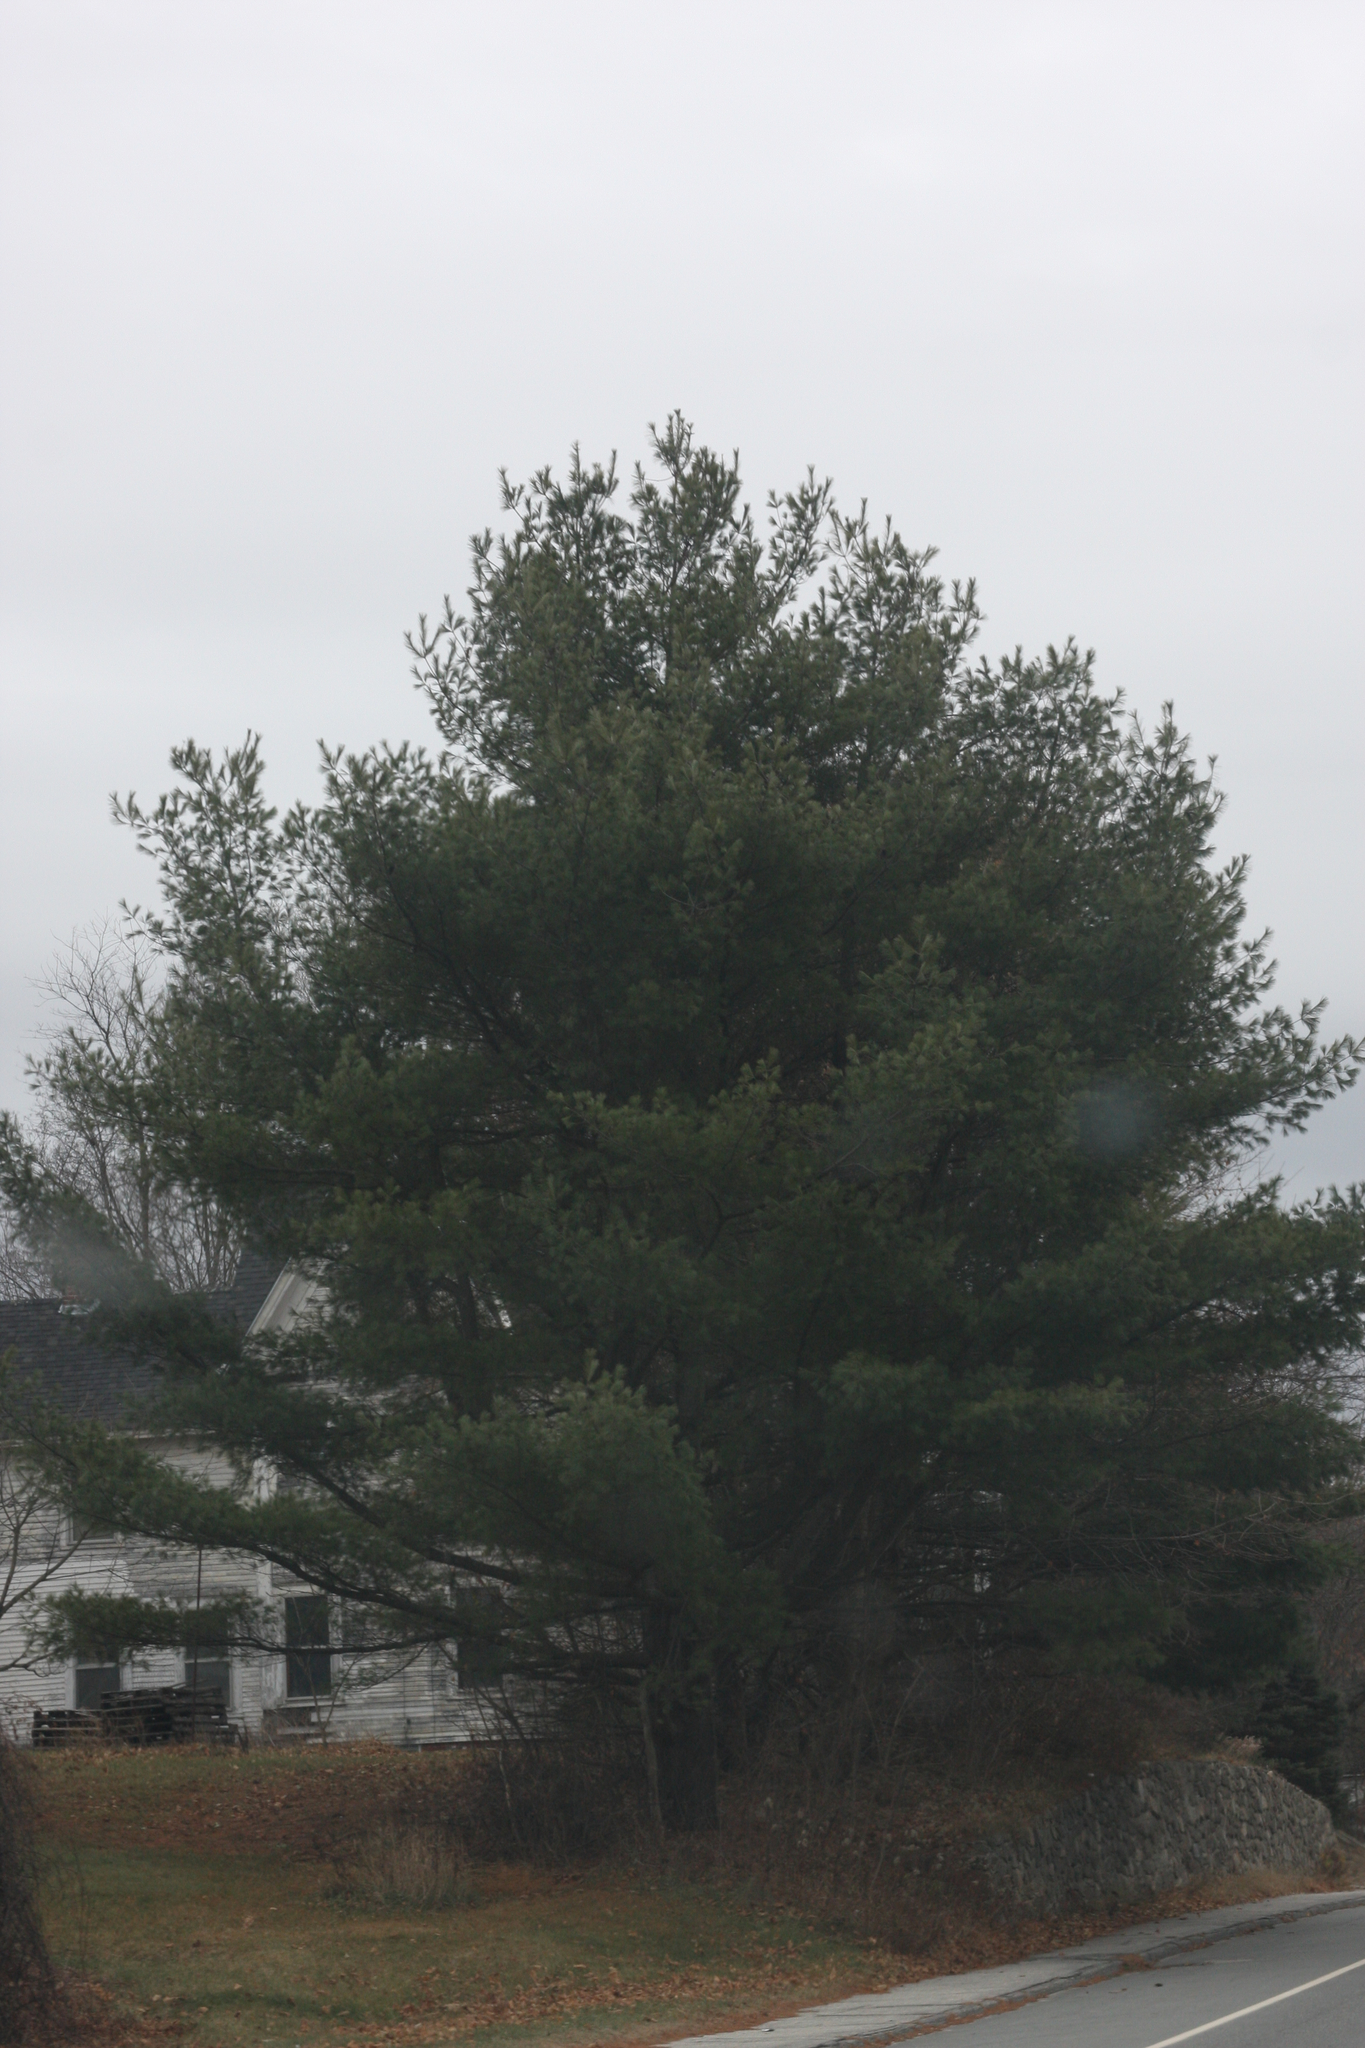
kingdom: Plantae
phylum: Tracheophyta
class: Pinopsida
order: Pinales
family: Pinaceae
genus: Pinus
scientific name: Pinus strobus
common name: Weymouth pine
